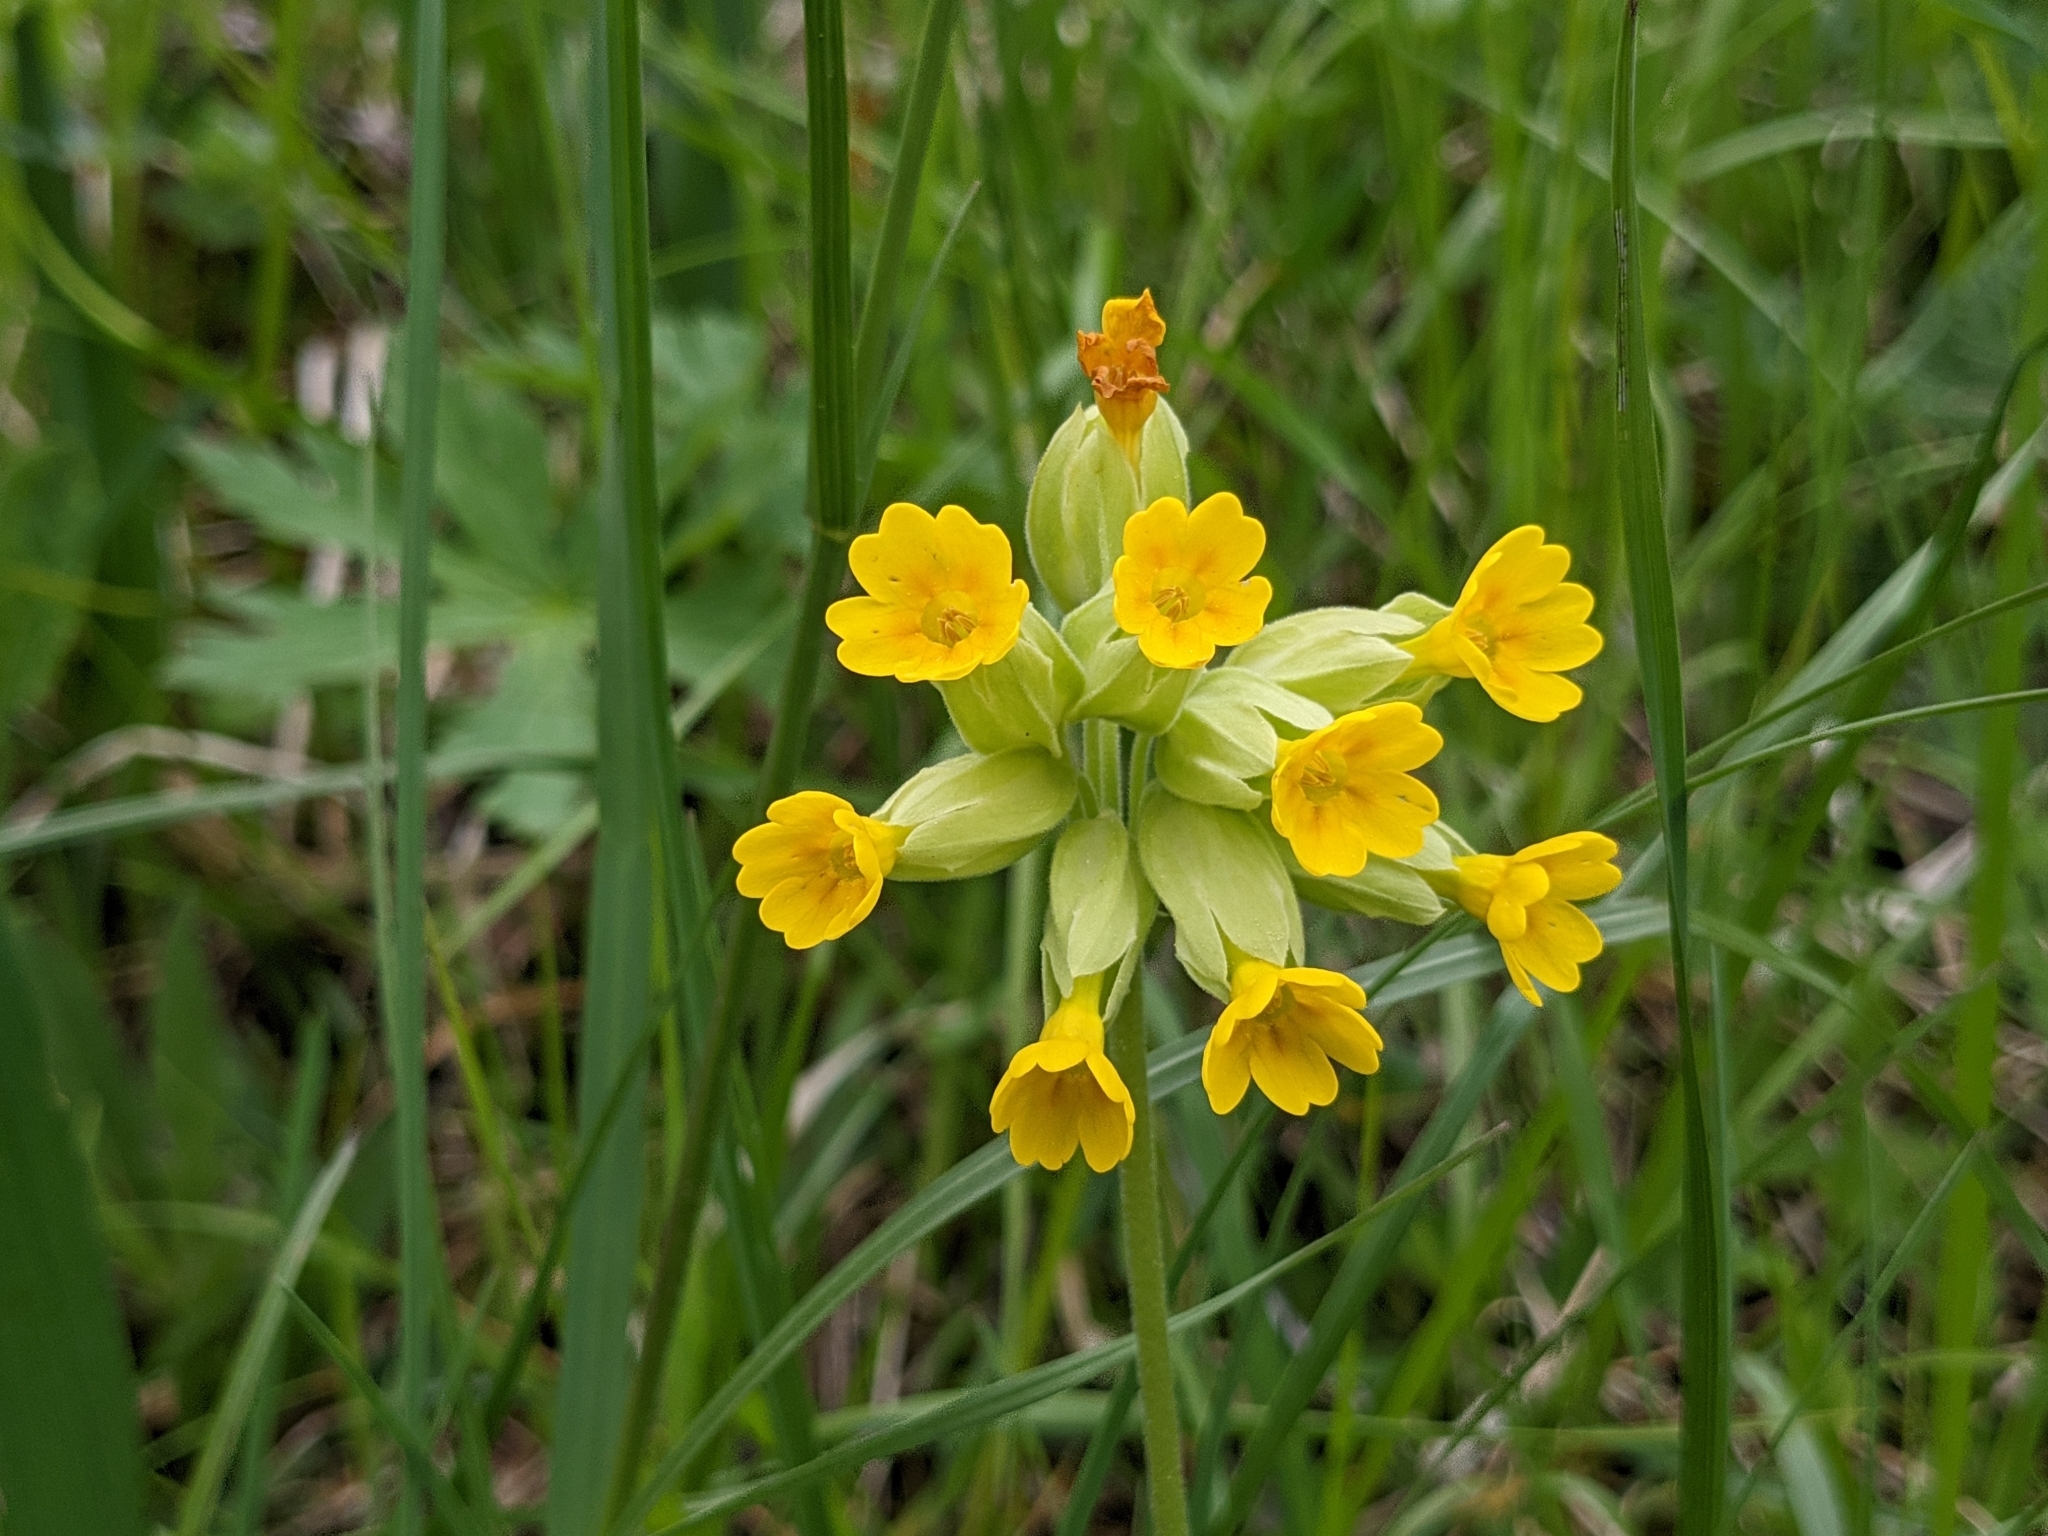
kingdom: Plantae
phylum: Tracheophyta
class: Magnoliopsida
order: Ericales
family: Primulaceae
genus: Primula
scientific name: Primula veris
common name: Cowslip
